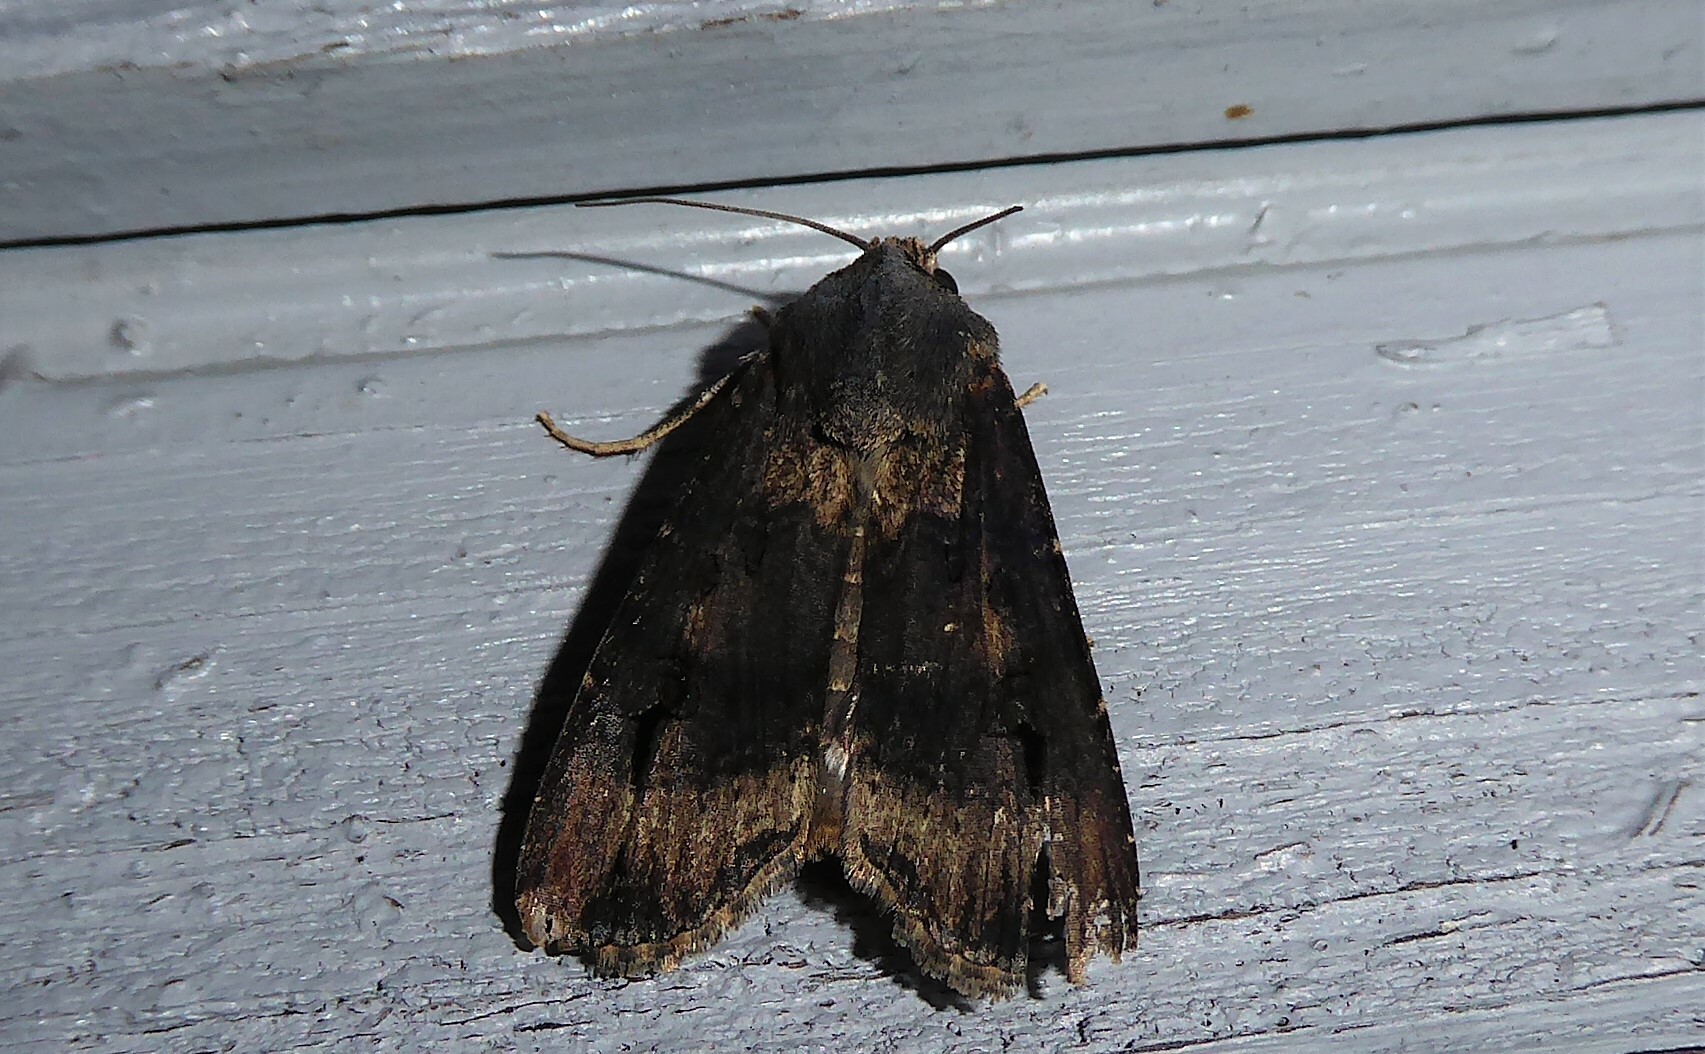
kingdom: Animalia
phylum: Arthropoda
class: Insecta
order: Lepidoptera
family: Noctuidae
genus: Agrotis
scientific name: Agrotis ipsilon
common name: Dark sword-grass
